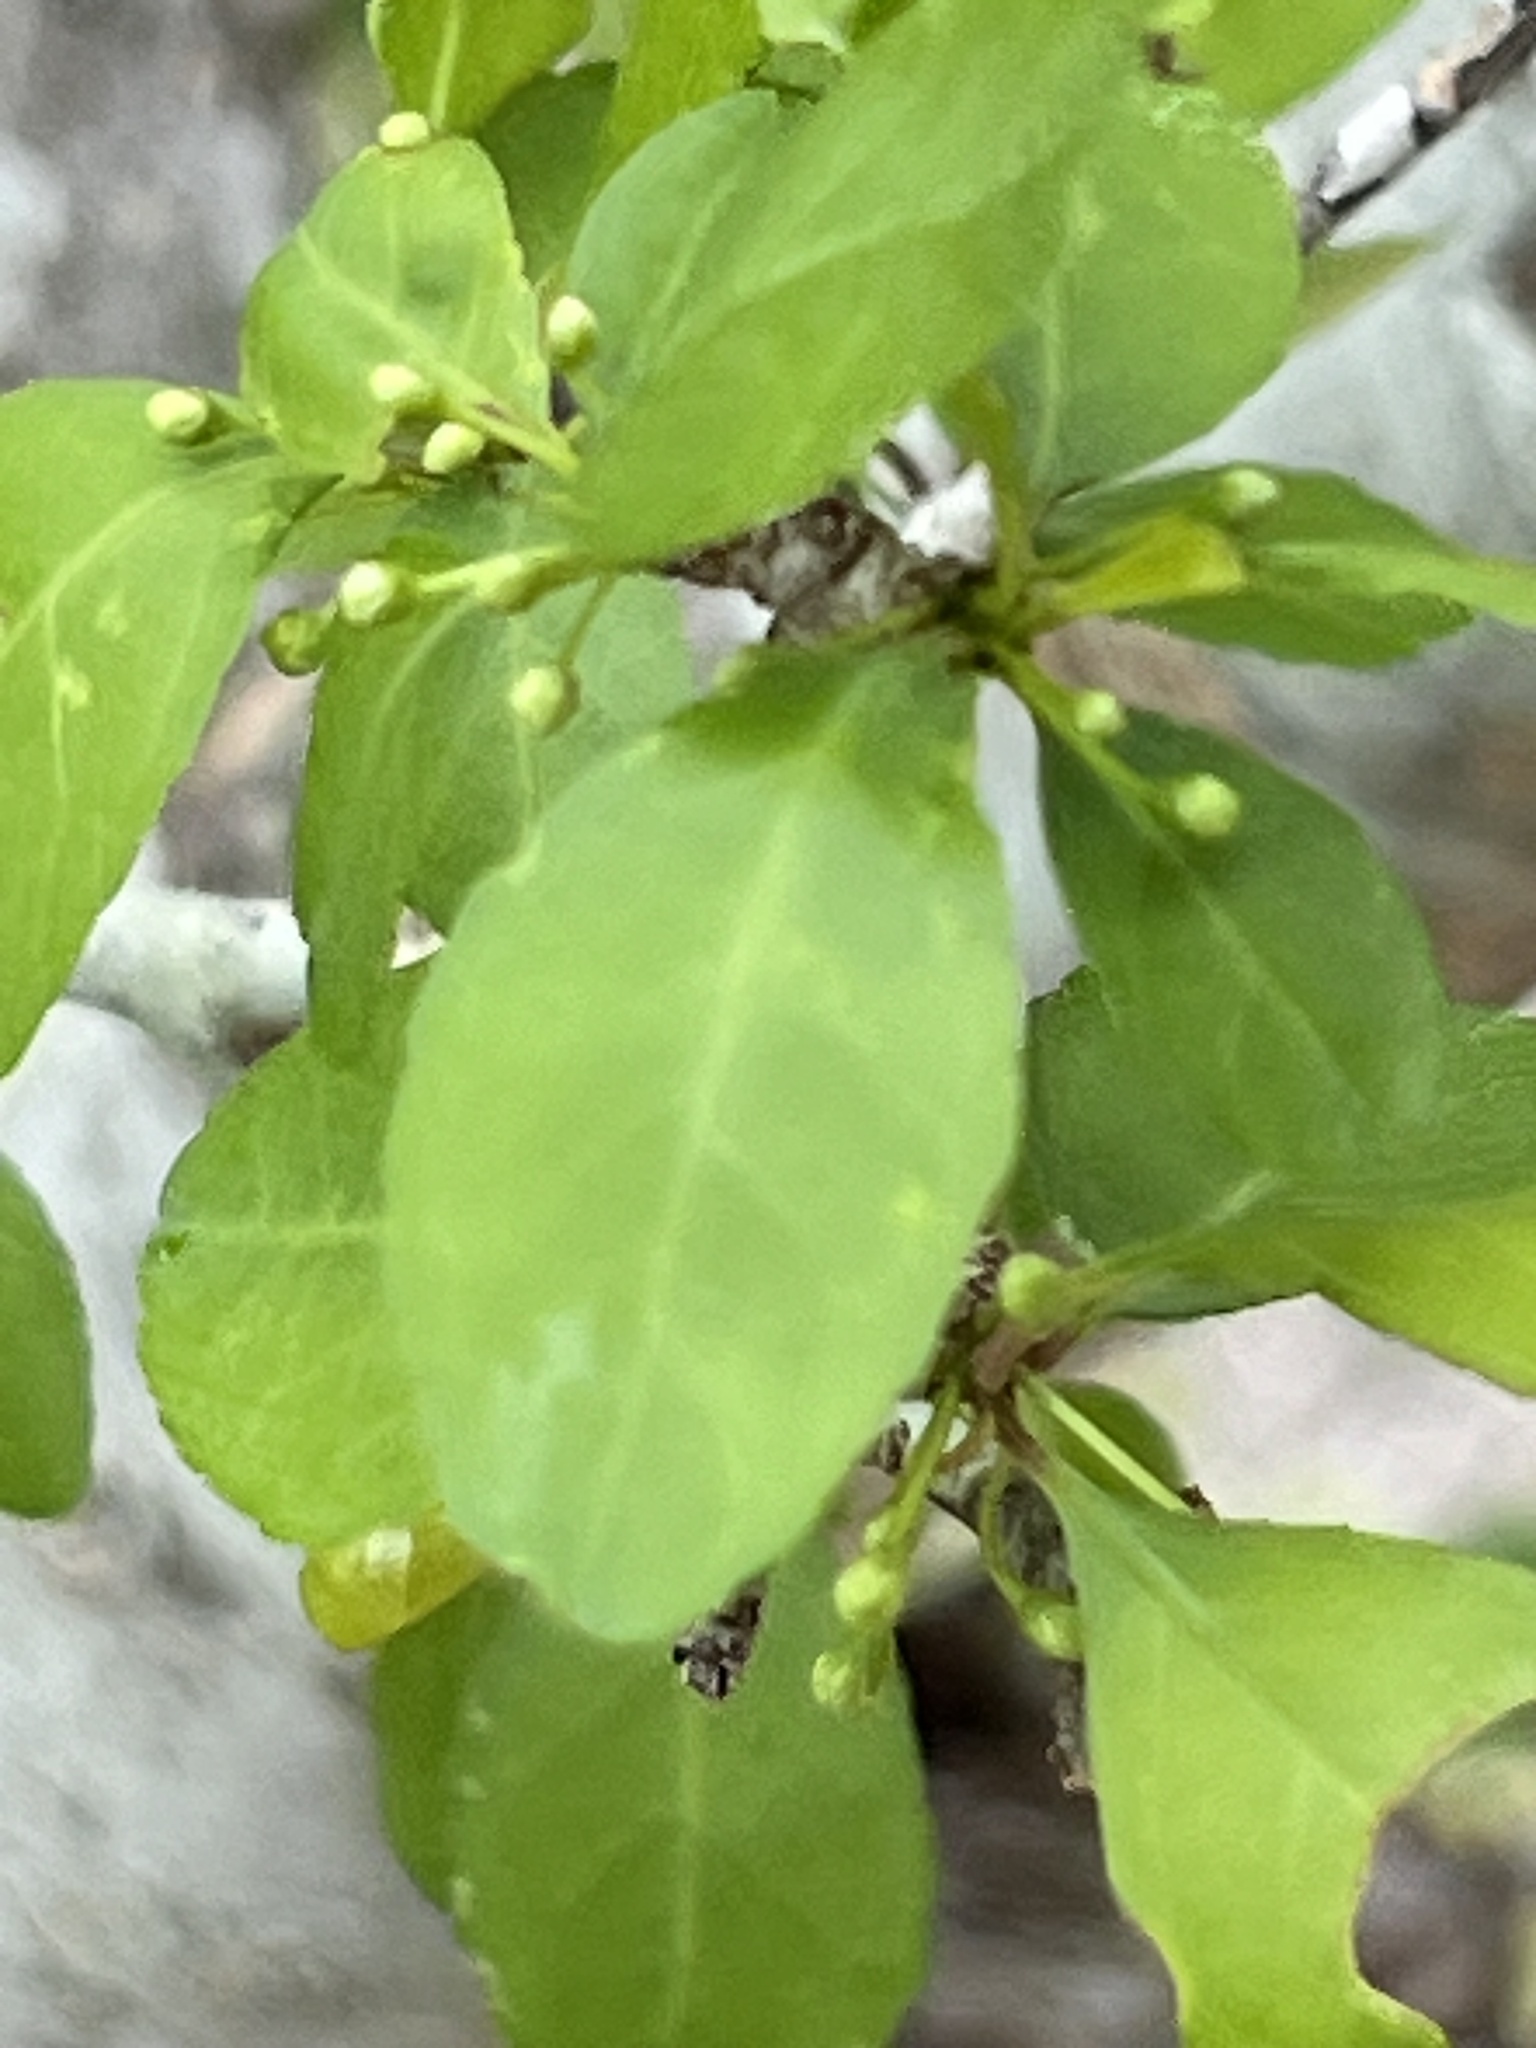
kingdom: Plantae
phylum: Tracheophyta
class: Magnoliopsida
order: Aquifoliales
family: Aquifoliaceae
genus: Ilex
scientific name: Ilex decidua
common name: Possum-haw
